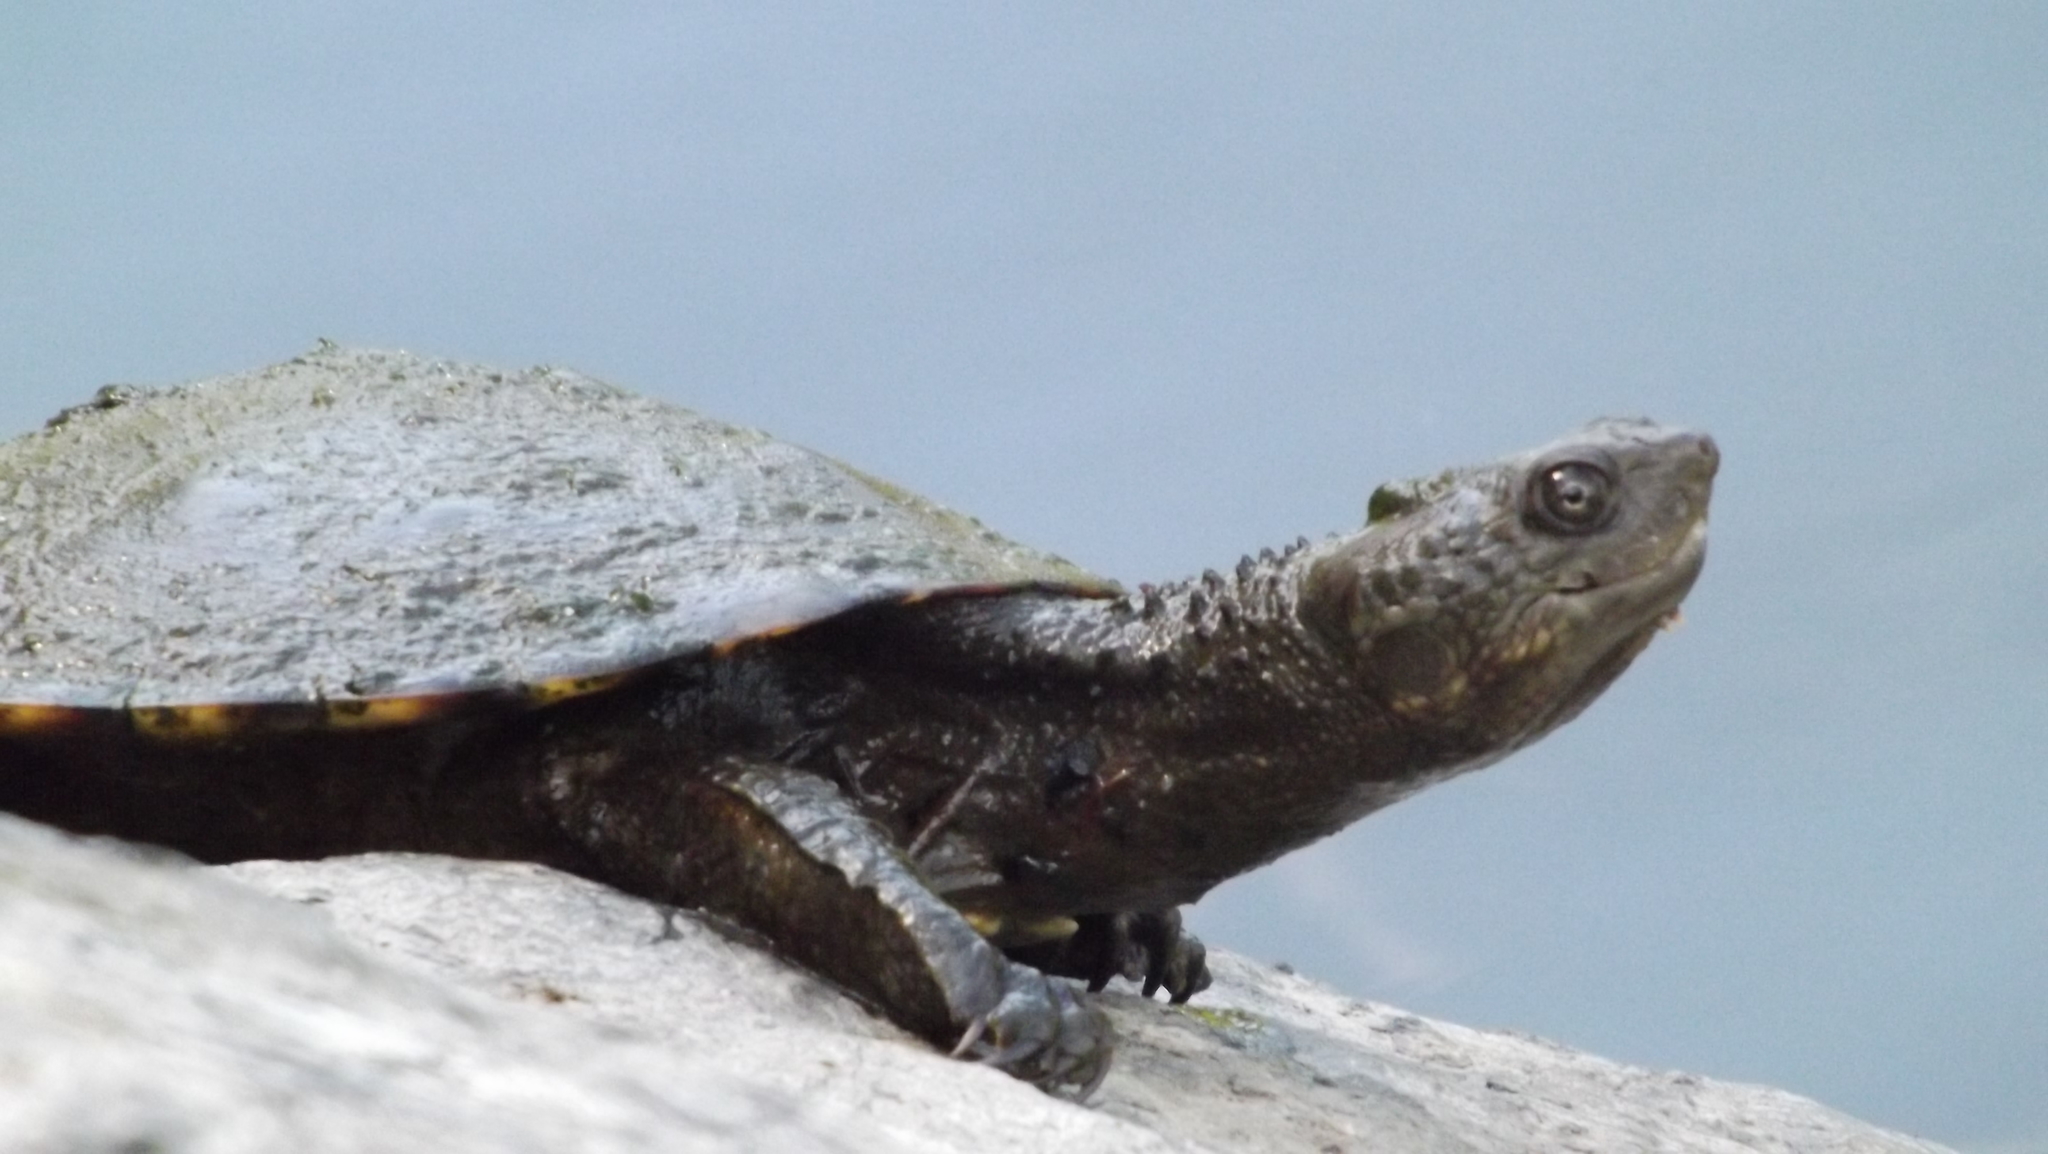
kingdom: Animalia
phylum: Chordata
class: Testudines
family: Chelidae
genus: Emydura
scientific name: Emydura macquarii
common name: Murray river turtle
